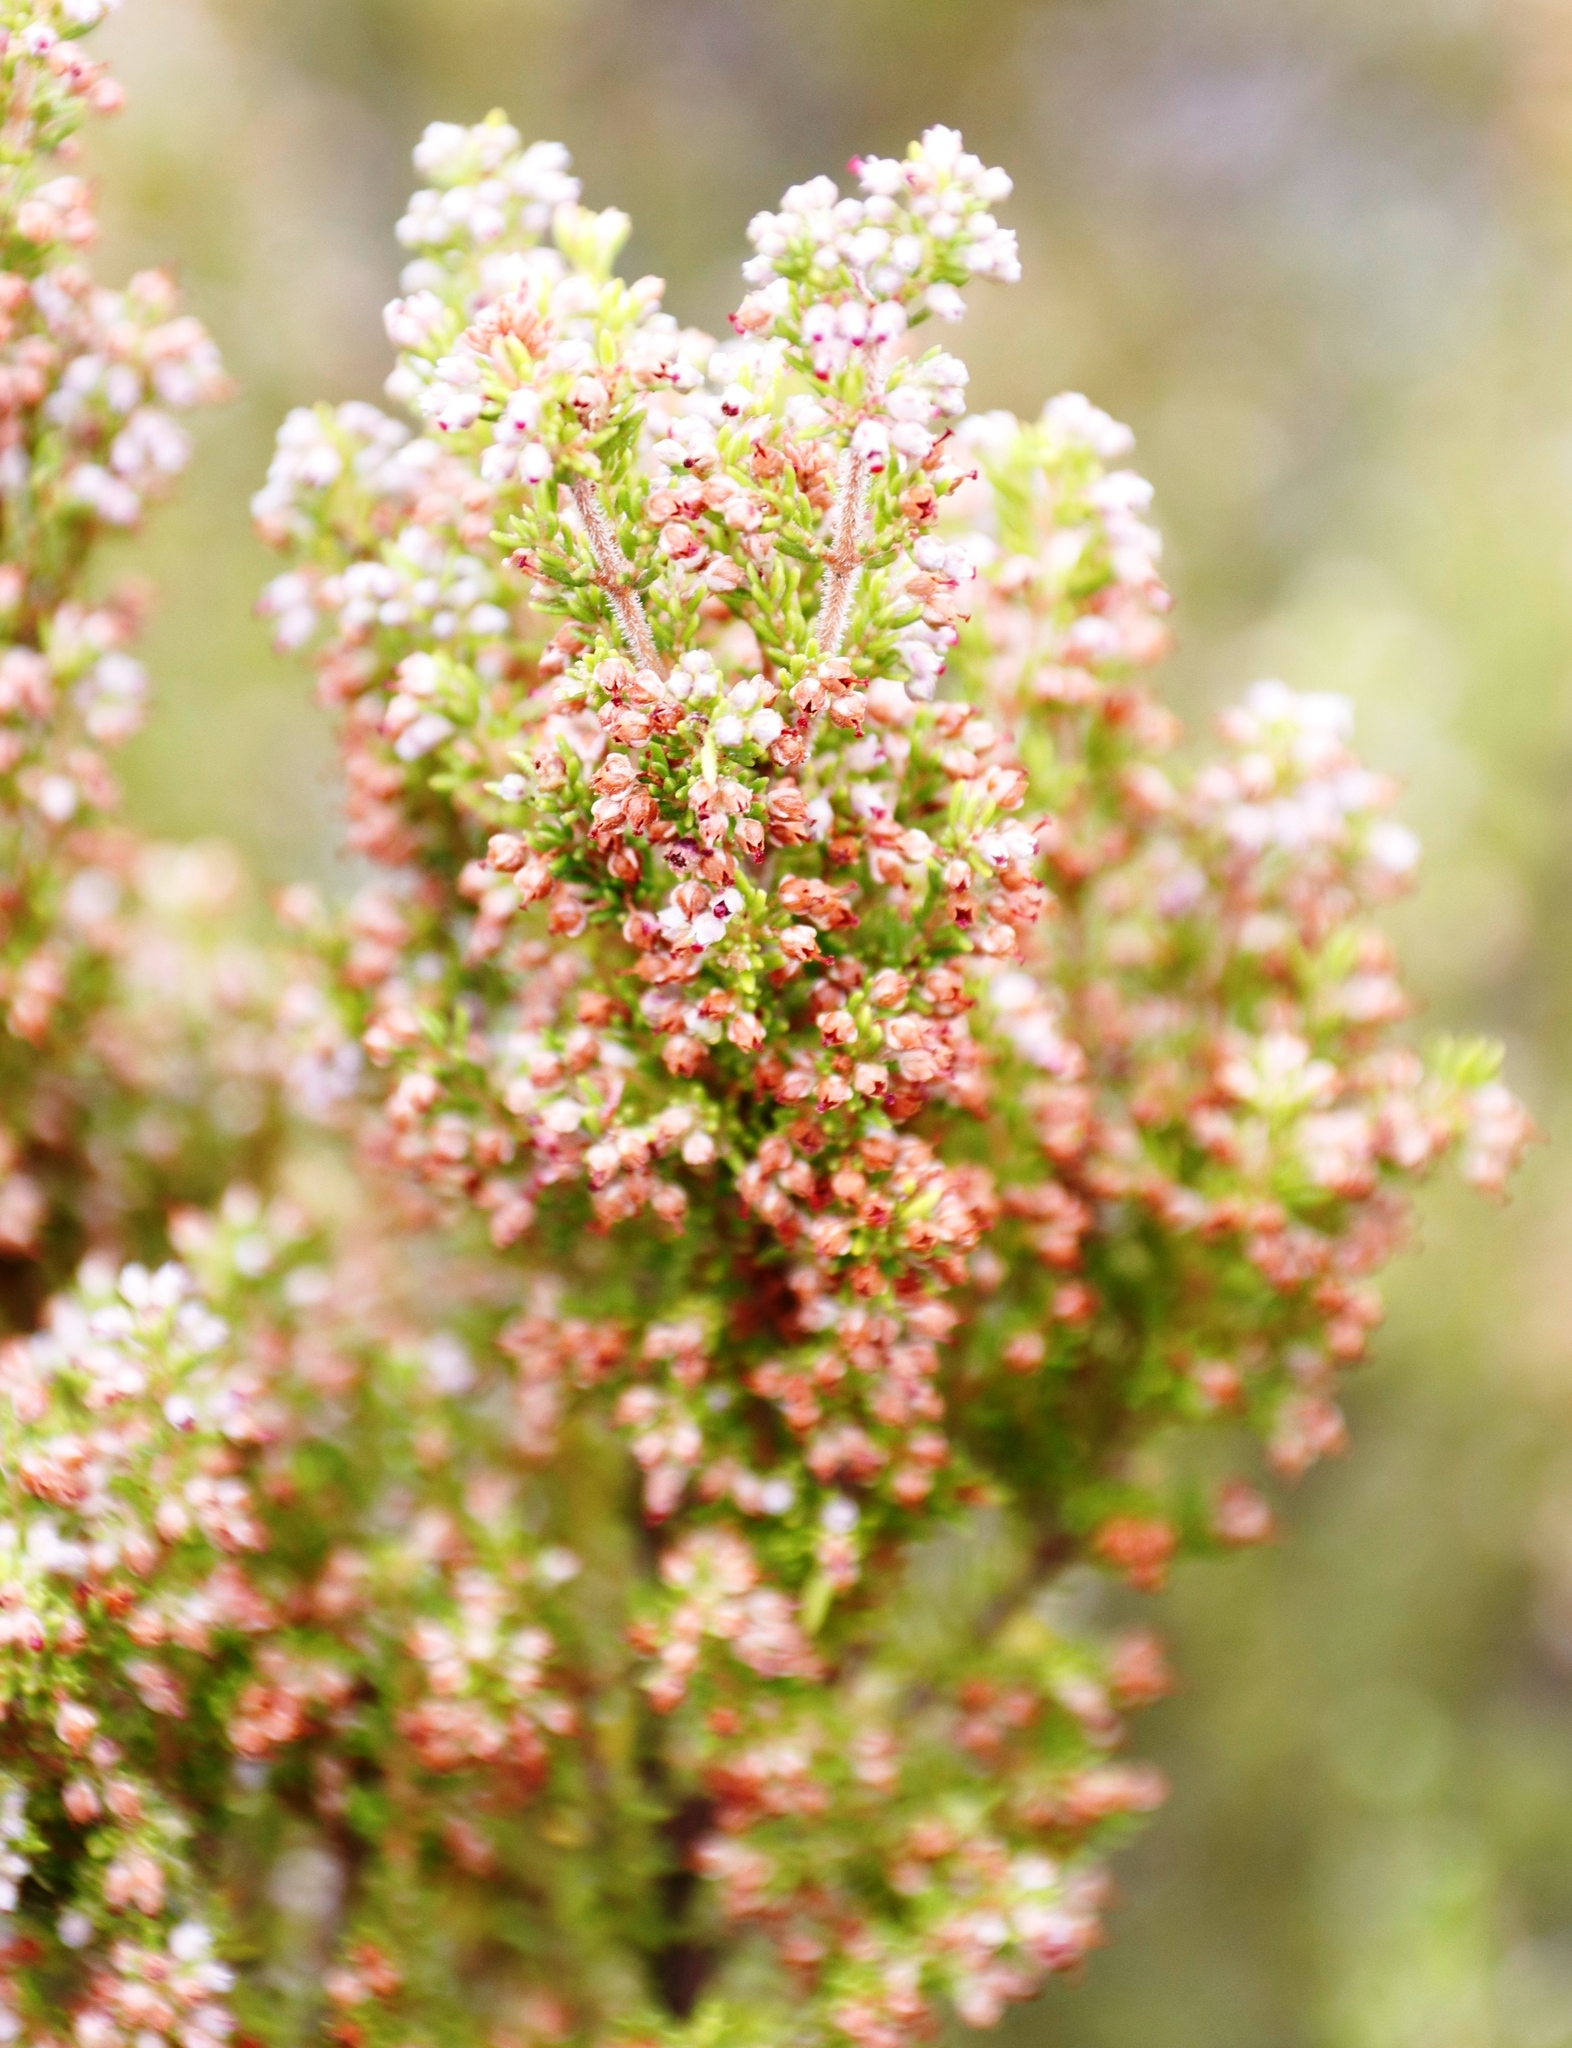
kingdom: Plantae
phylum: Tracheophyta
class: Magnoliopsida
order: Ericales
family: Ericaceae
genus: Erica
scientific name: Erica hispidula
